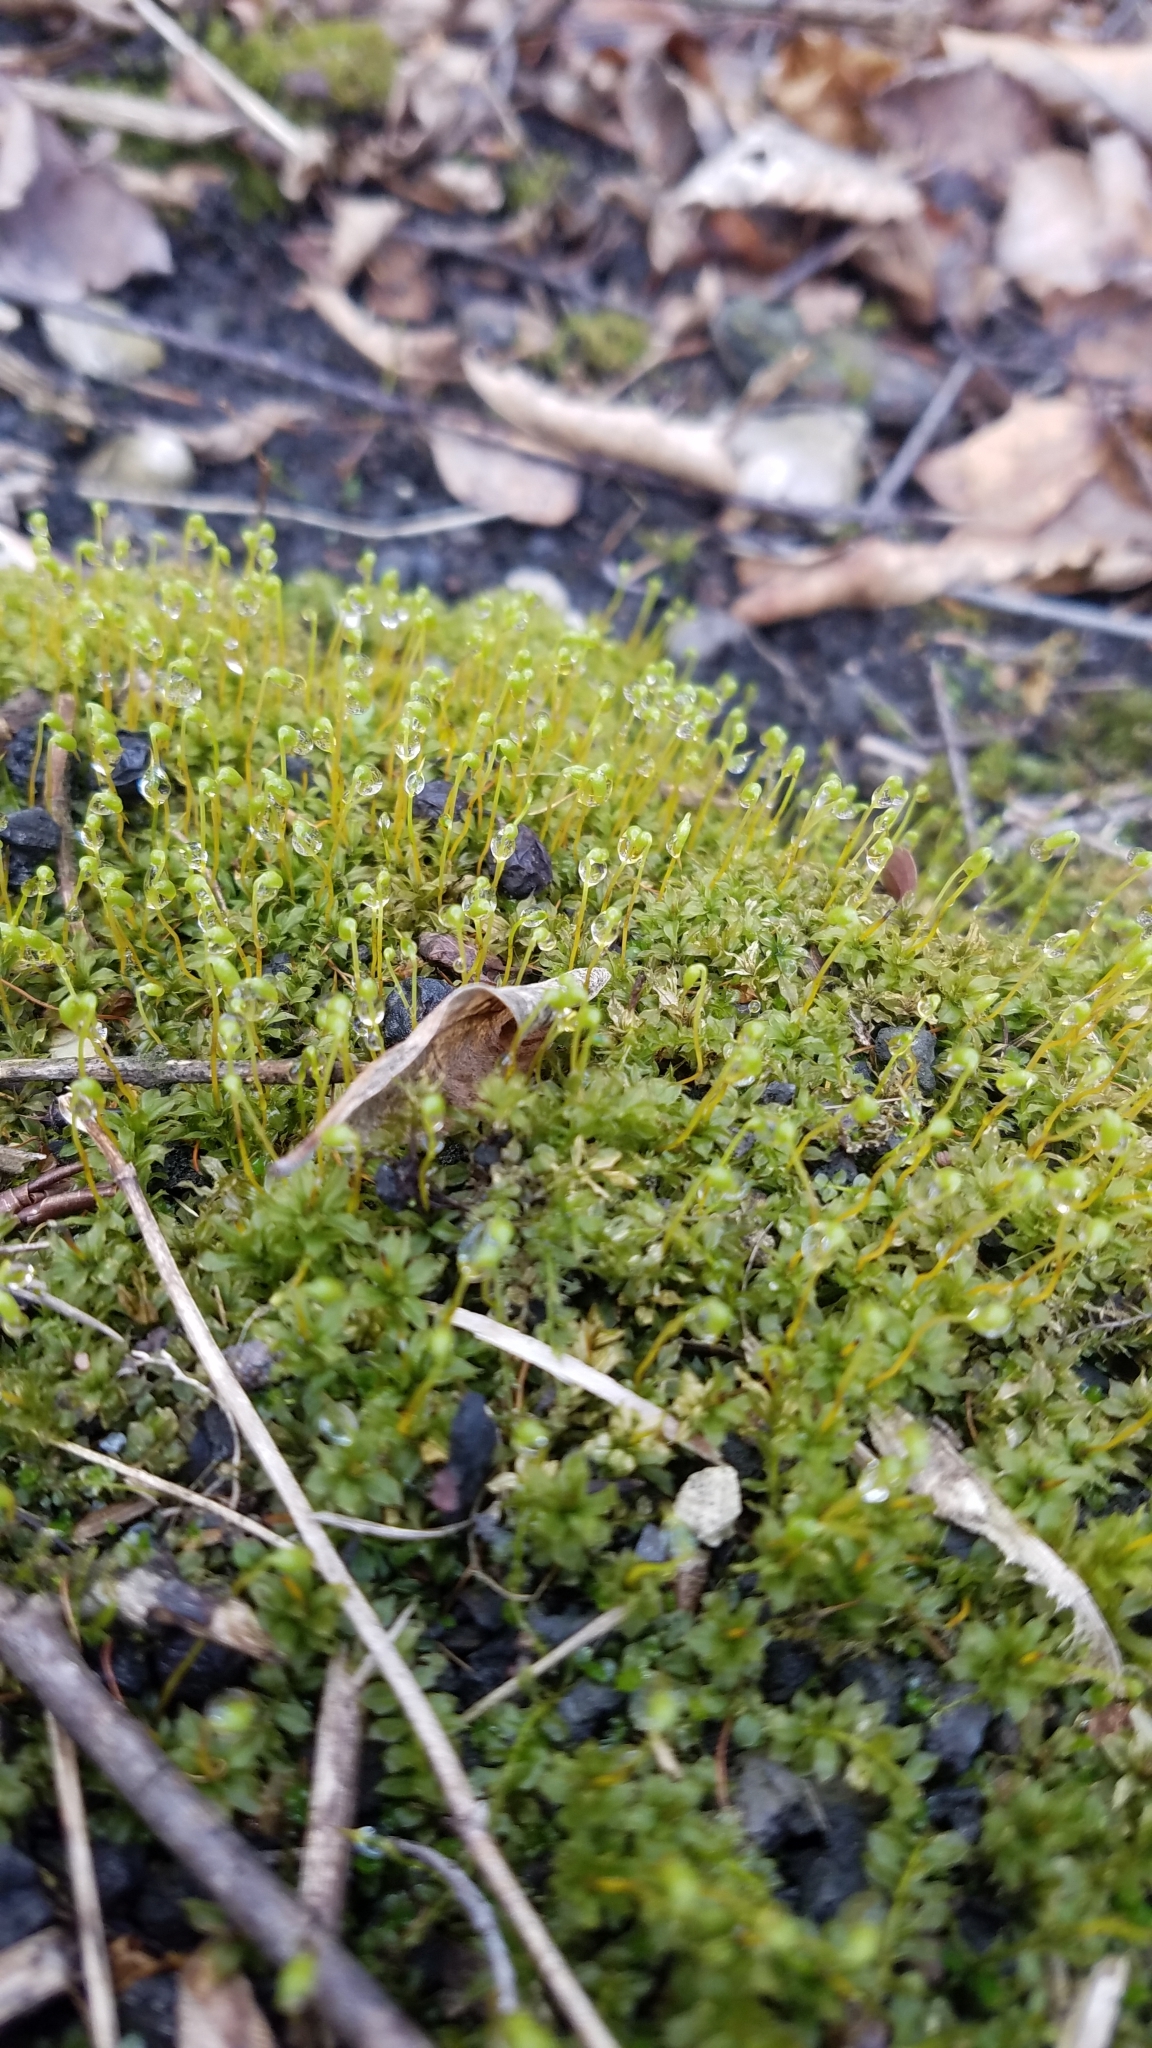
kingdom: Plantae
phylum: Bryophyta
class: Bryopsida
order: Bryales
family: Mniaceae
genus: Plagiomnium
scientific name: Plagiomnium cuspidatum
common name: Woodsy leafy moss
